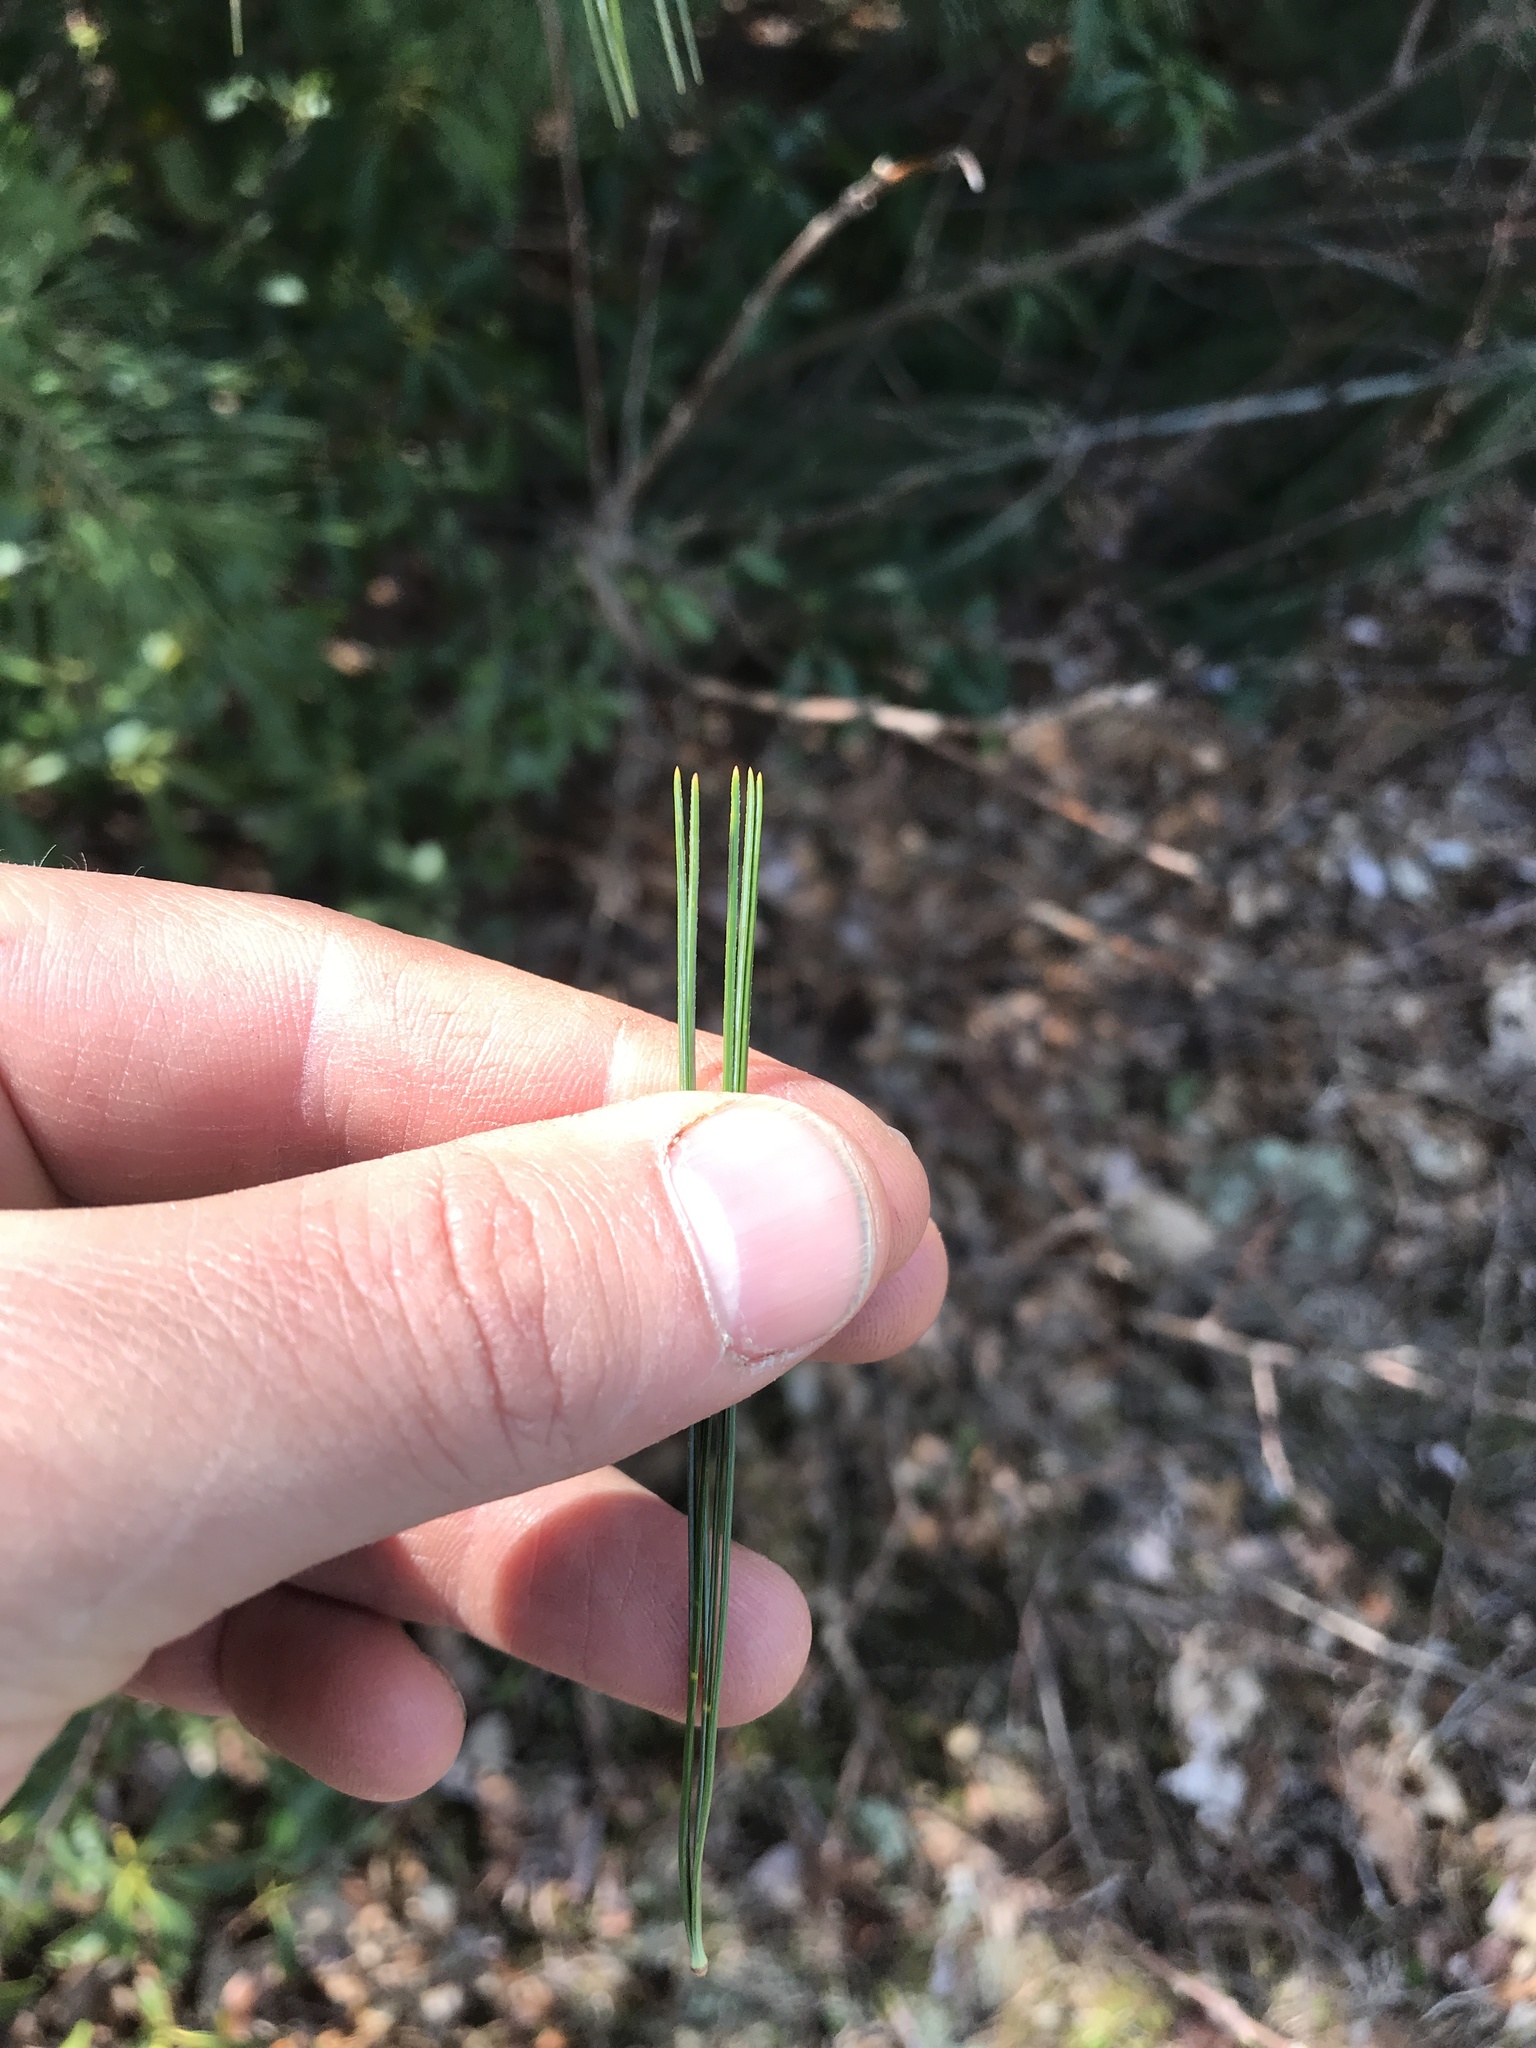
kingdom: Plantae
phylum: Tracheophyta
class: Pinopsida
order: Pinales
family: Pinaceae
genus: Pinus
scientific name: Pinus strobus
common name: Weymouth pine
